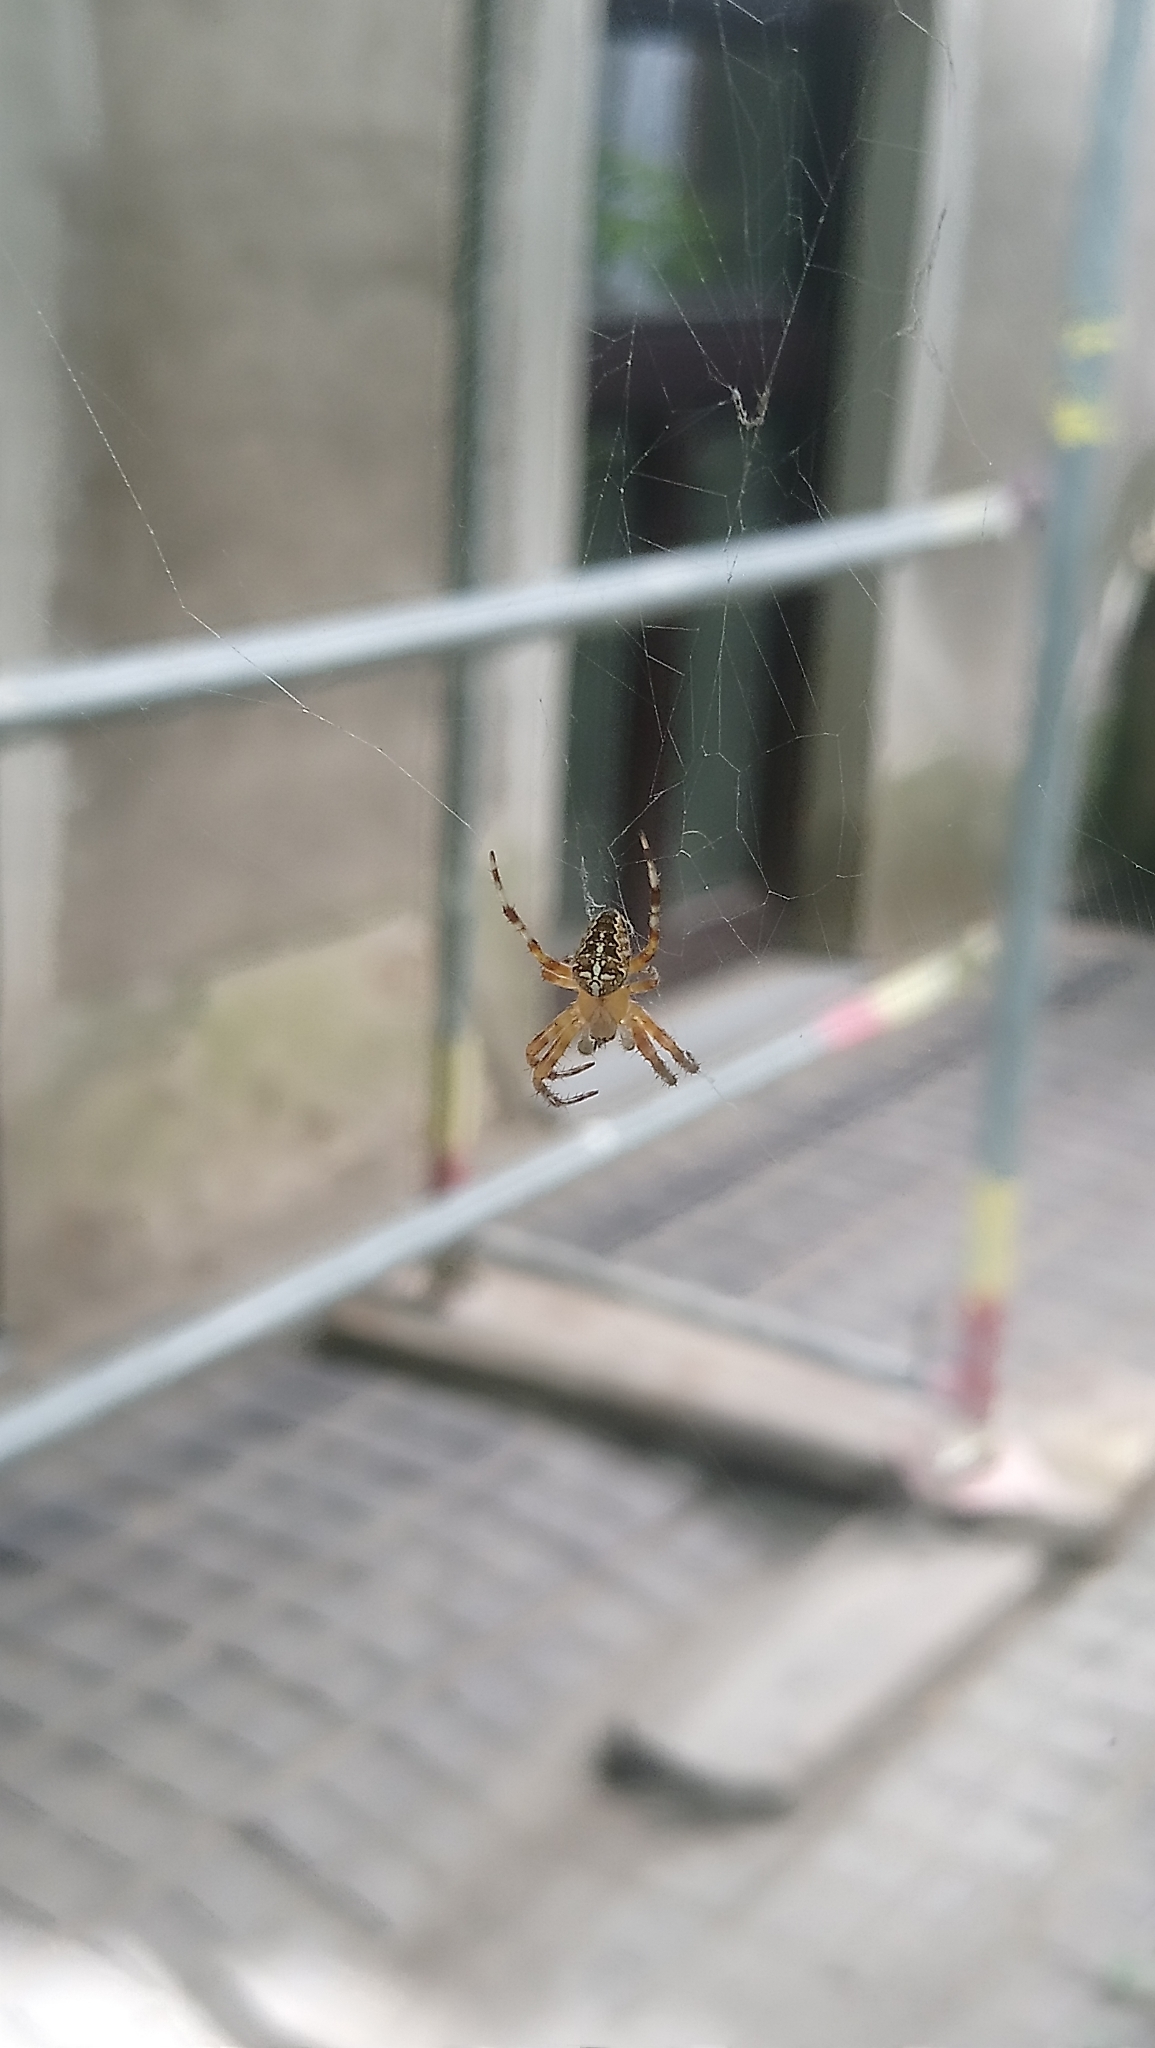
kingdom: Animalia
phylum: Arthropoda
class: Arachnida
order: Araneae
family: Araneidae
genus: Araneus
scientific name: Araneus diadematus
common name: Cross orbweaver
